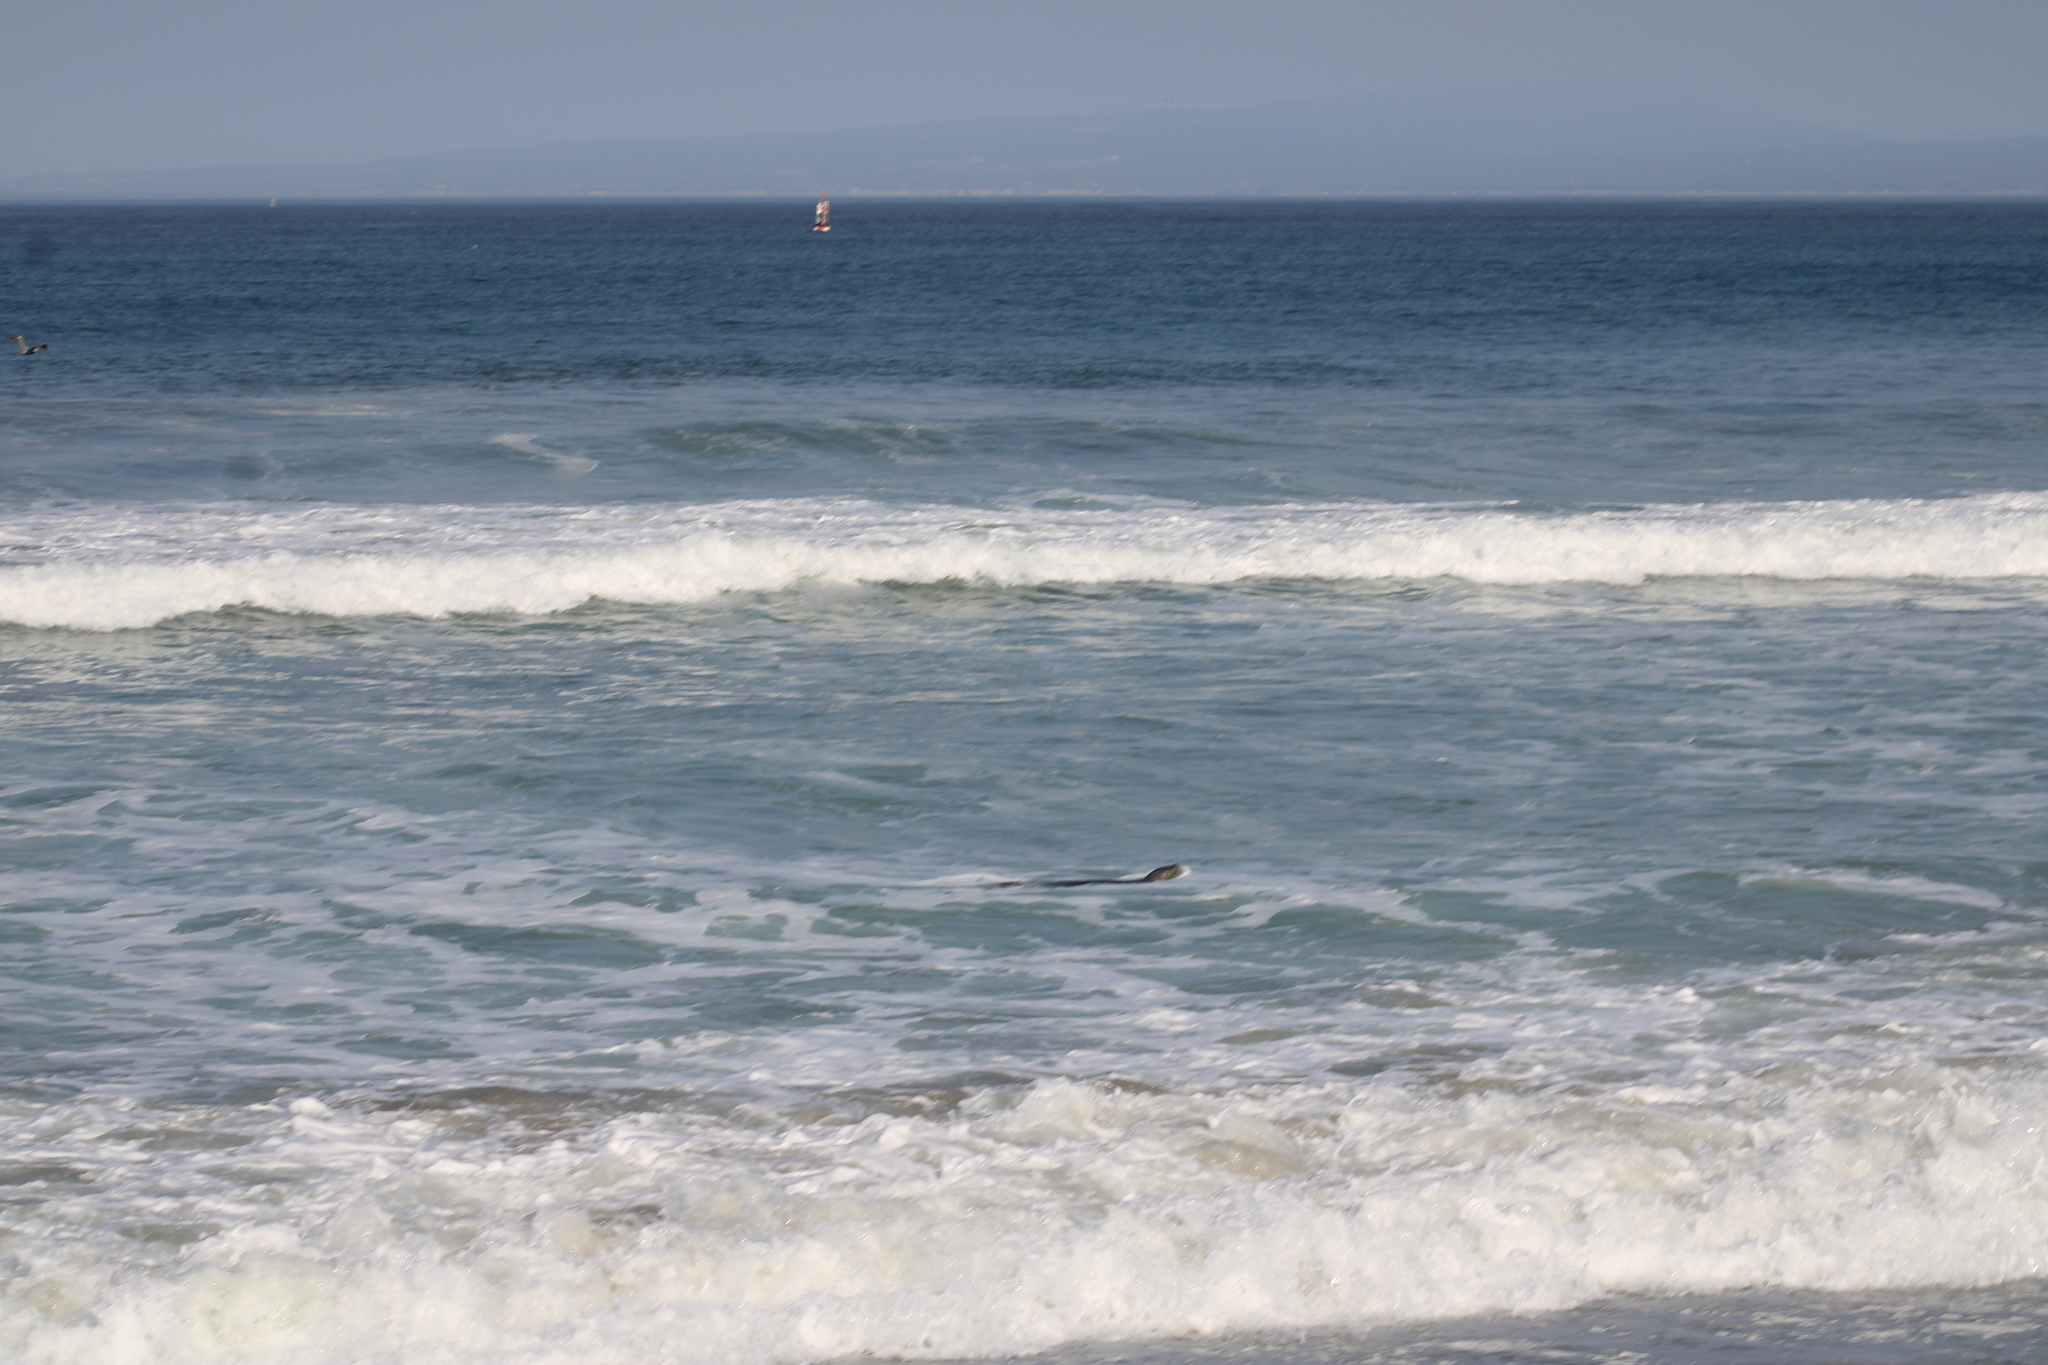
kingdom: Animalia
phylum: Chordata
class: Mammalia
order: Carnivora
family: Phocidae
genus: Phoca
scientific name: Phoca vitulina
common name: Harbor seal
